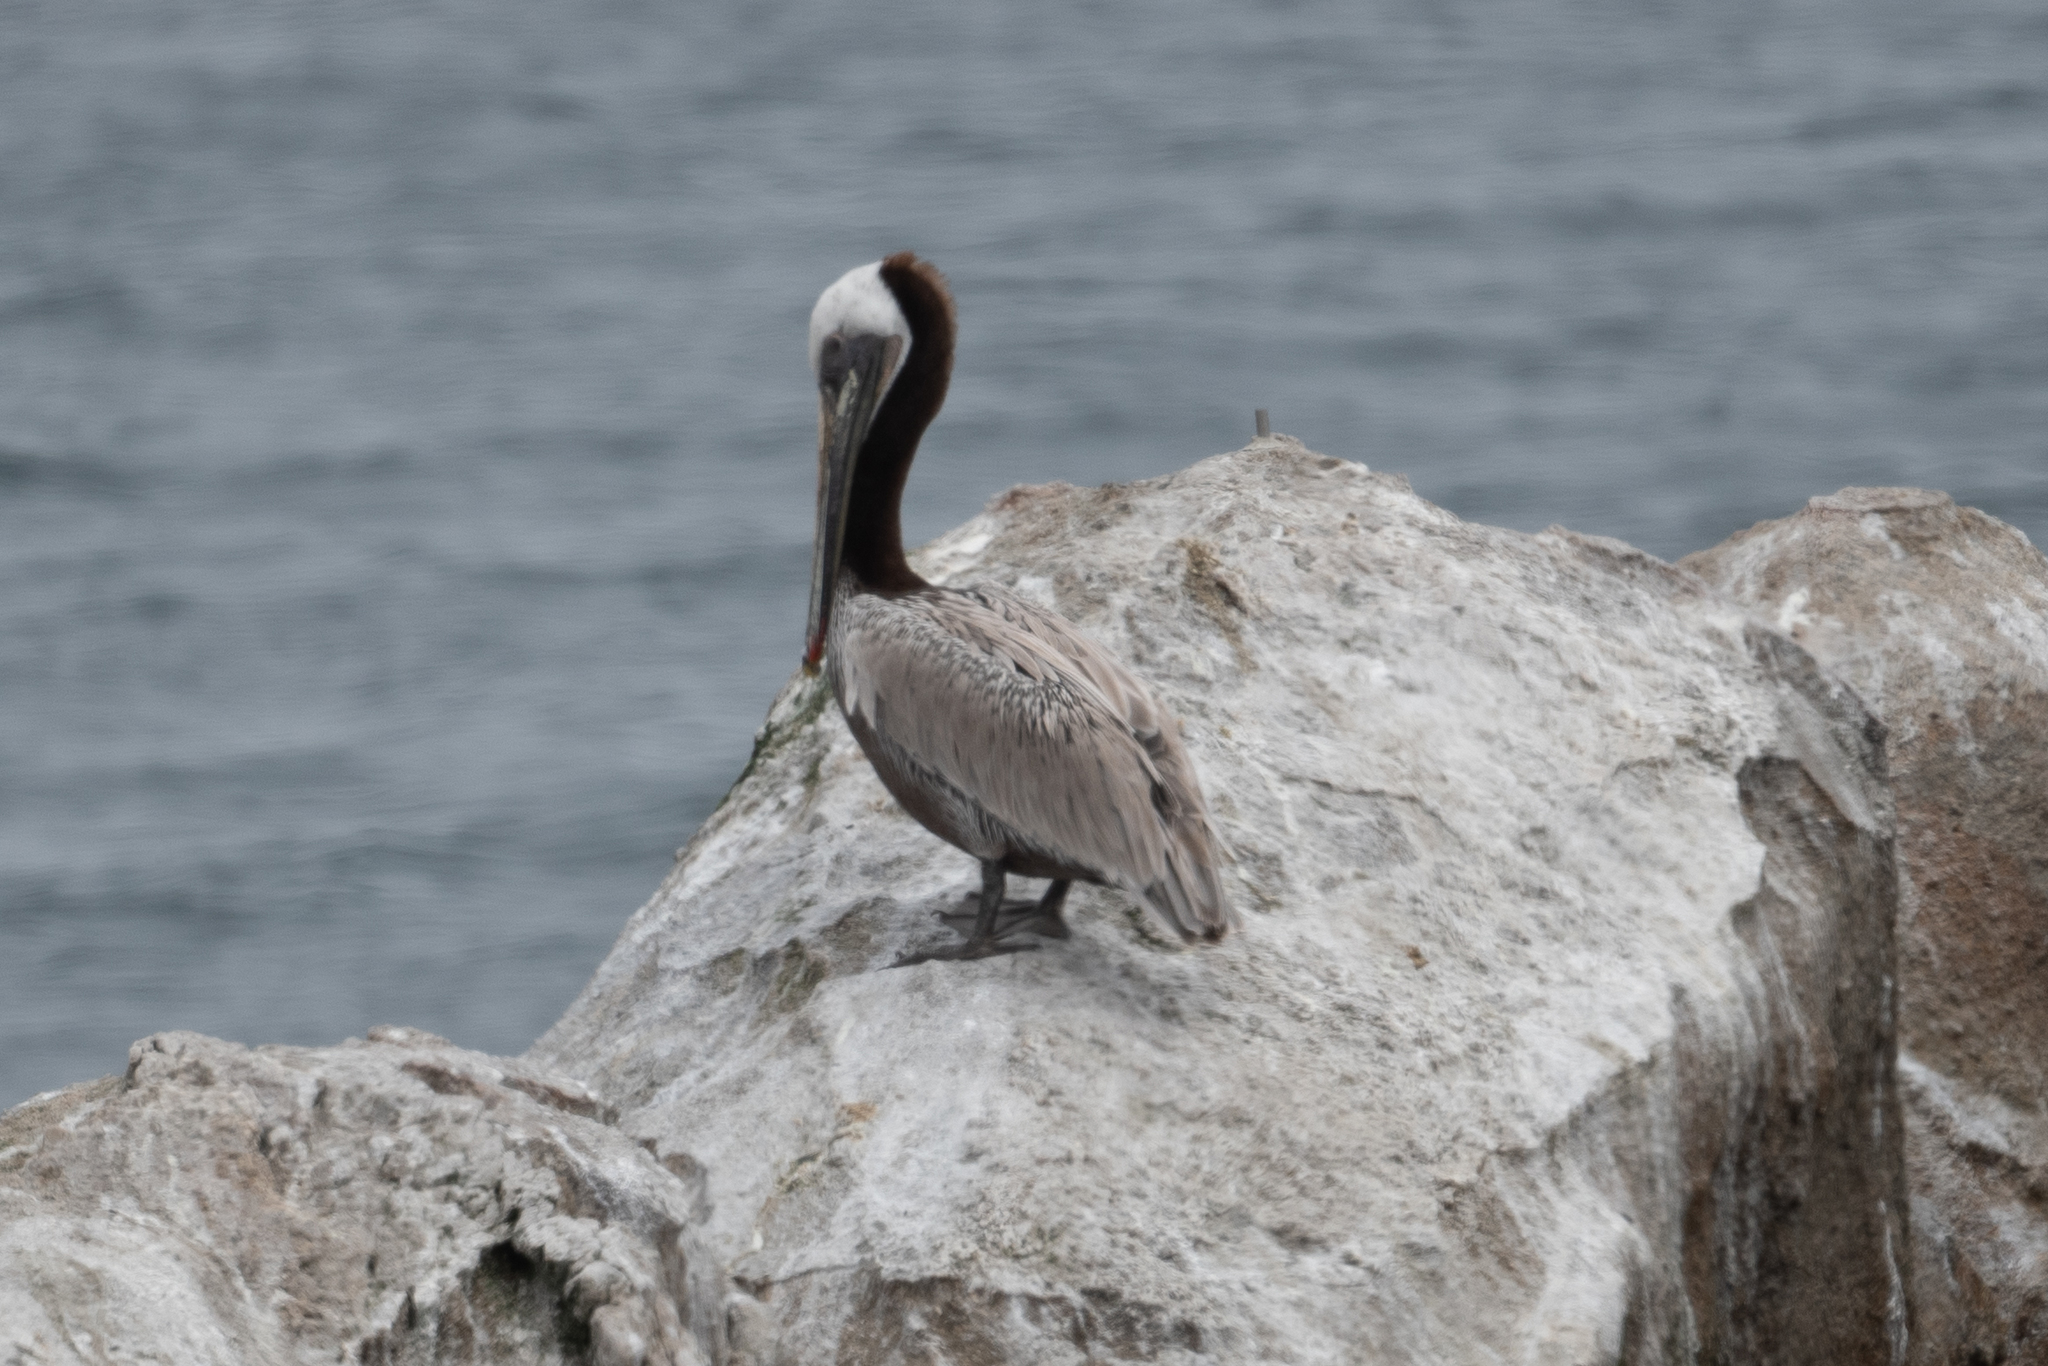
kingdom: Animalia
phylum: Chordata
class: Aves
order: Pelecaniformes
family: Pelecanidae
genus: Pelecanus
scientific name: Pelecanus occidentalis
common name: Brown pelican
